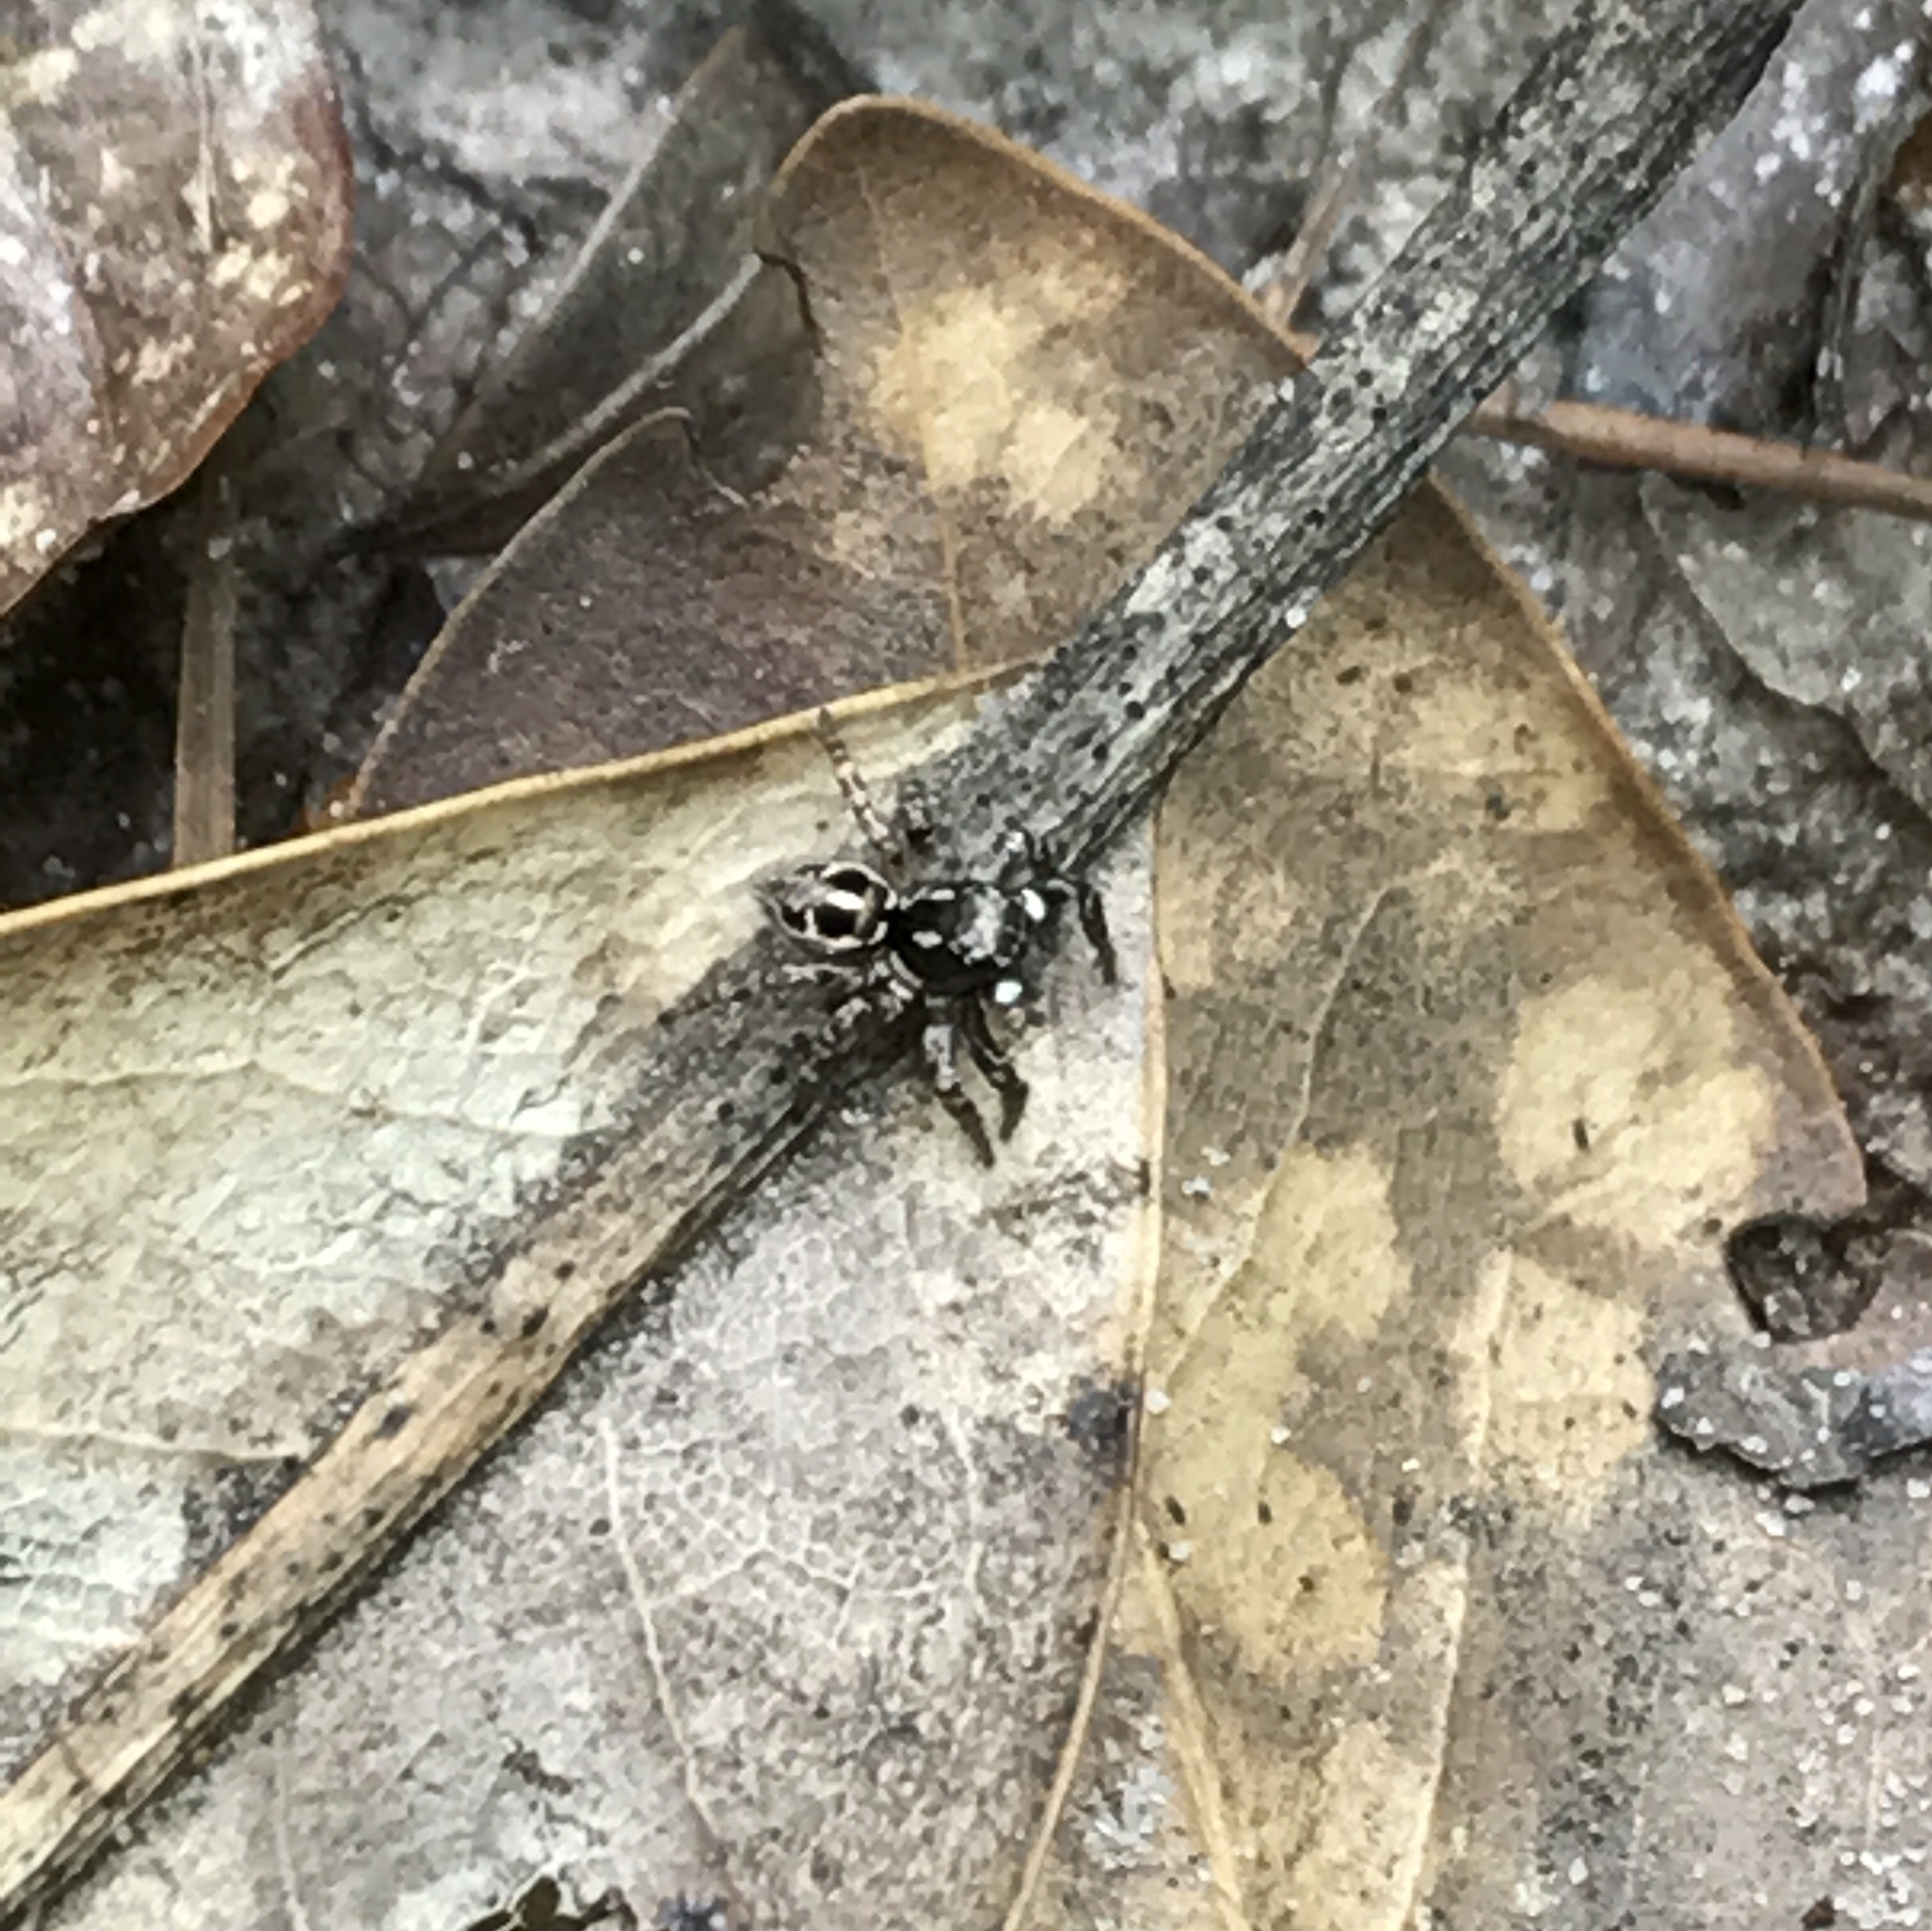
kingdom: Animalia
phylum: Arthropoda
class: Arachnida
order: Araneae
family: Salticidae
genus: Anasaitis
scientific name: Anasaitis canosa
